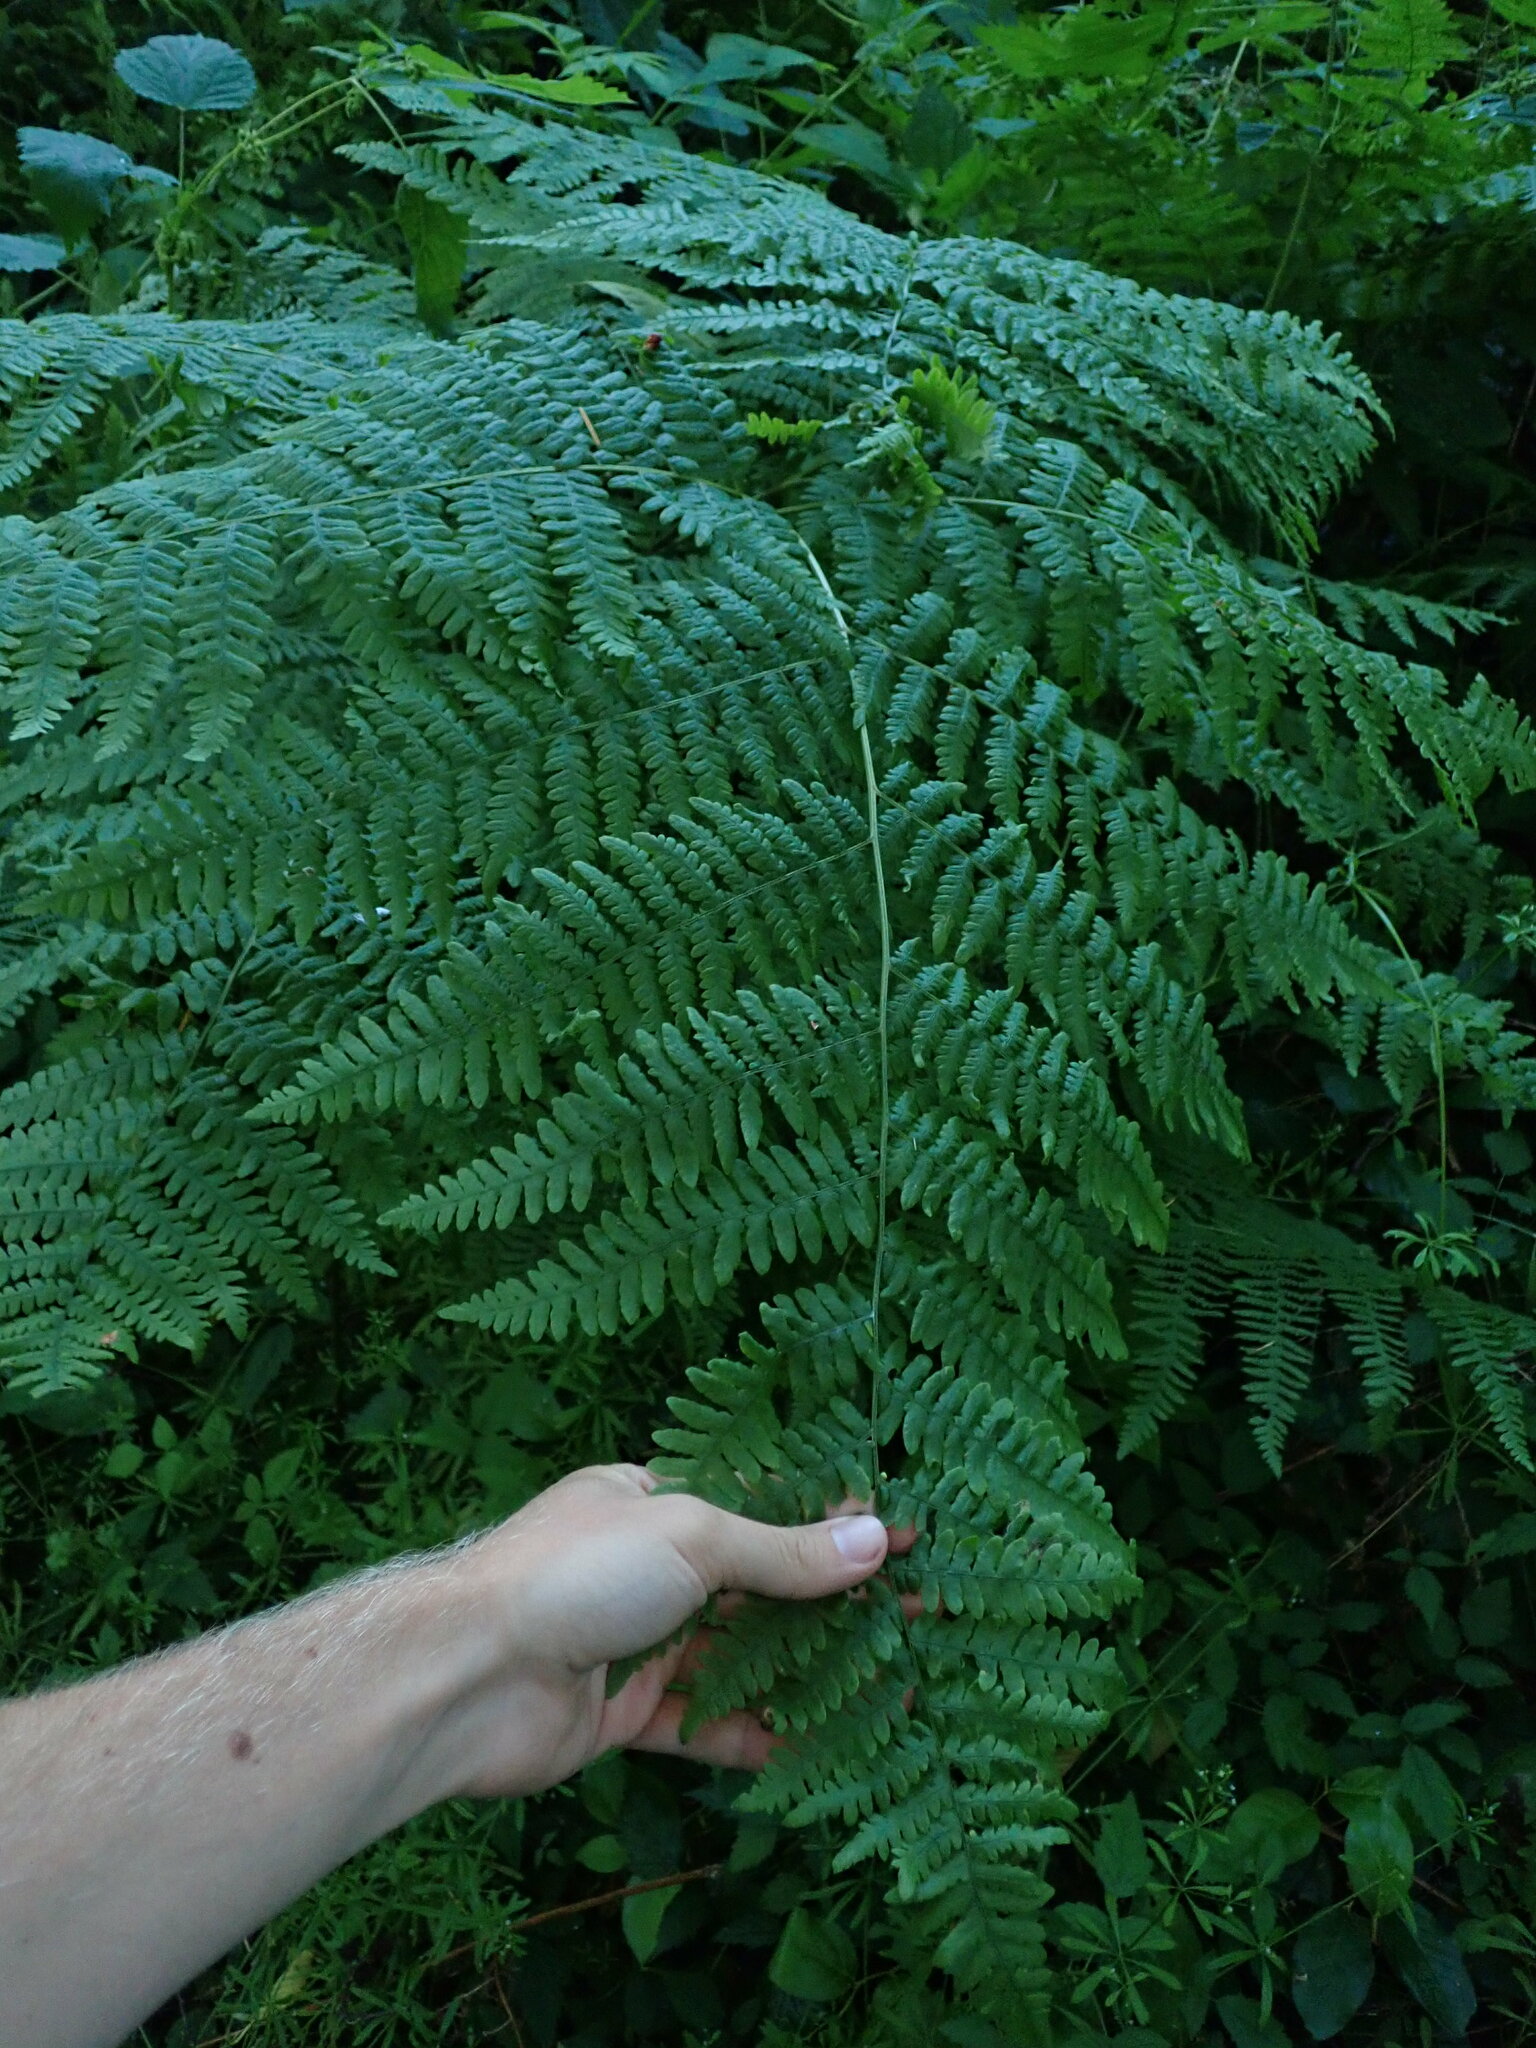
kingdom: Plantae
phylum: Tracheophyta
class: Polypodiopsida
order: Polypodiales
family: Dennstaedtiaceae
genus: Pteridium
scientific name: Pteridium aquilinum
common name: Bracken
